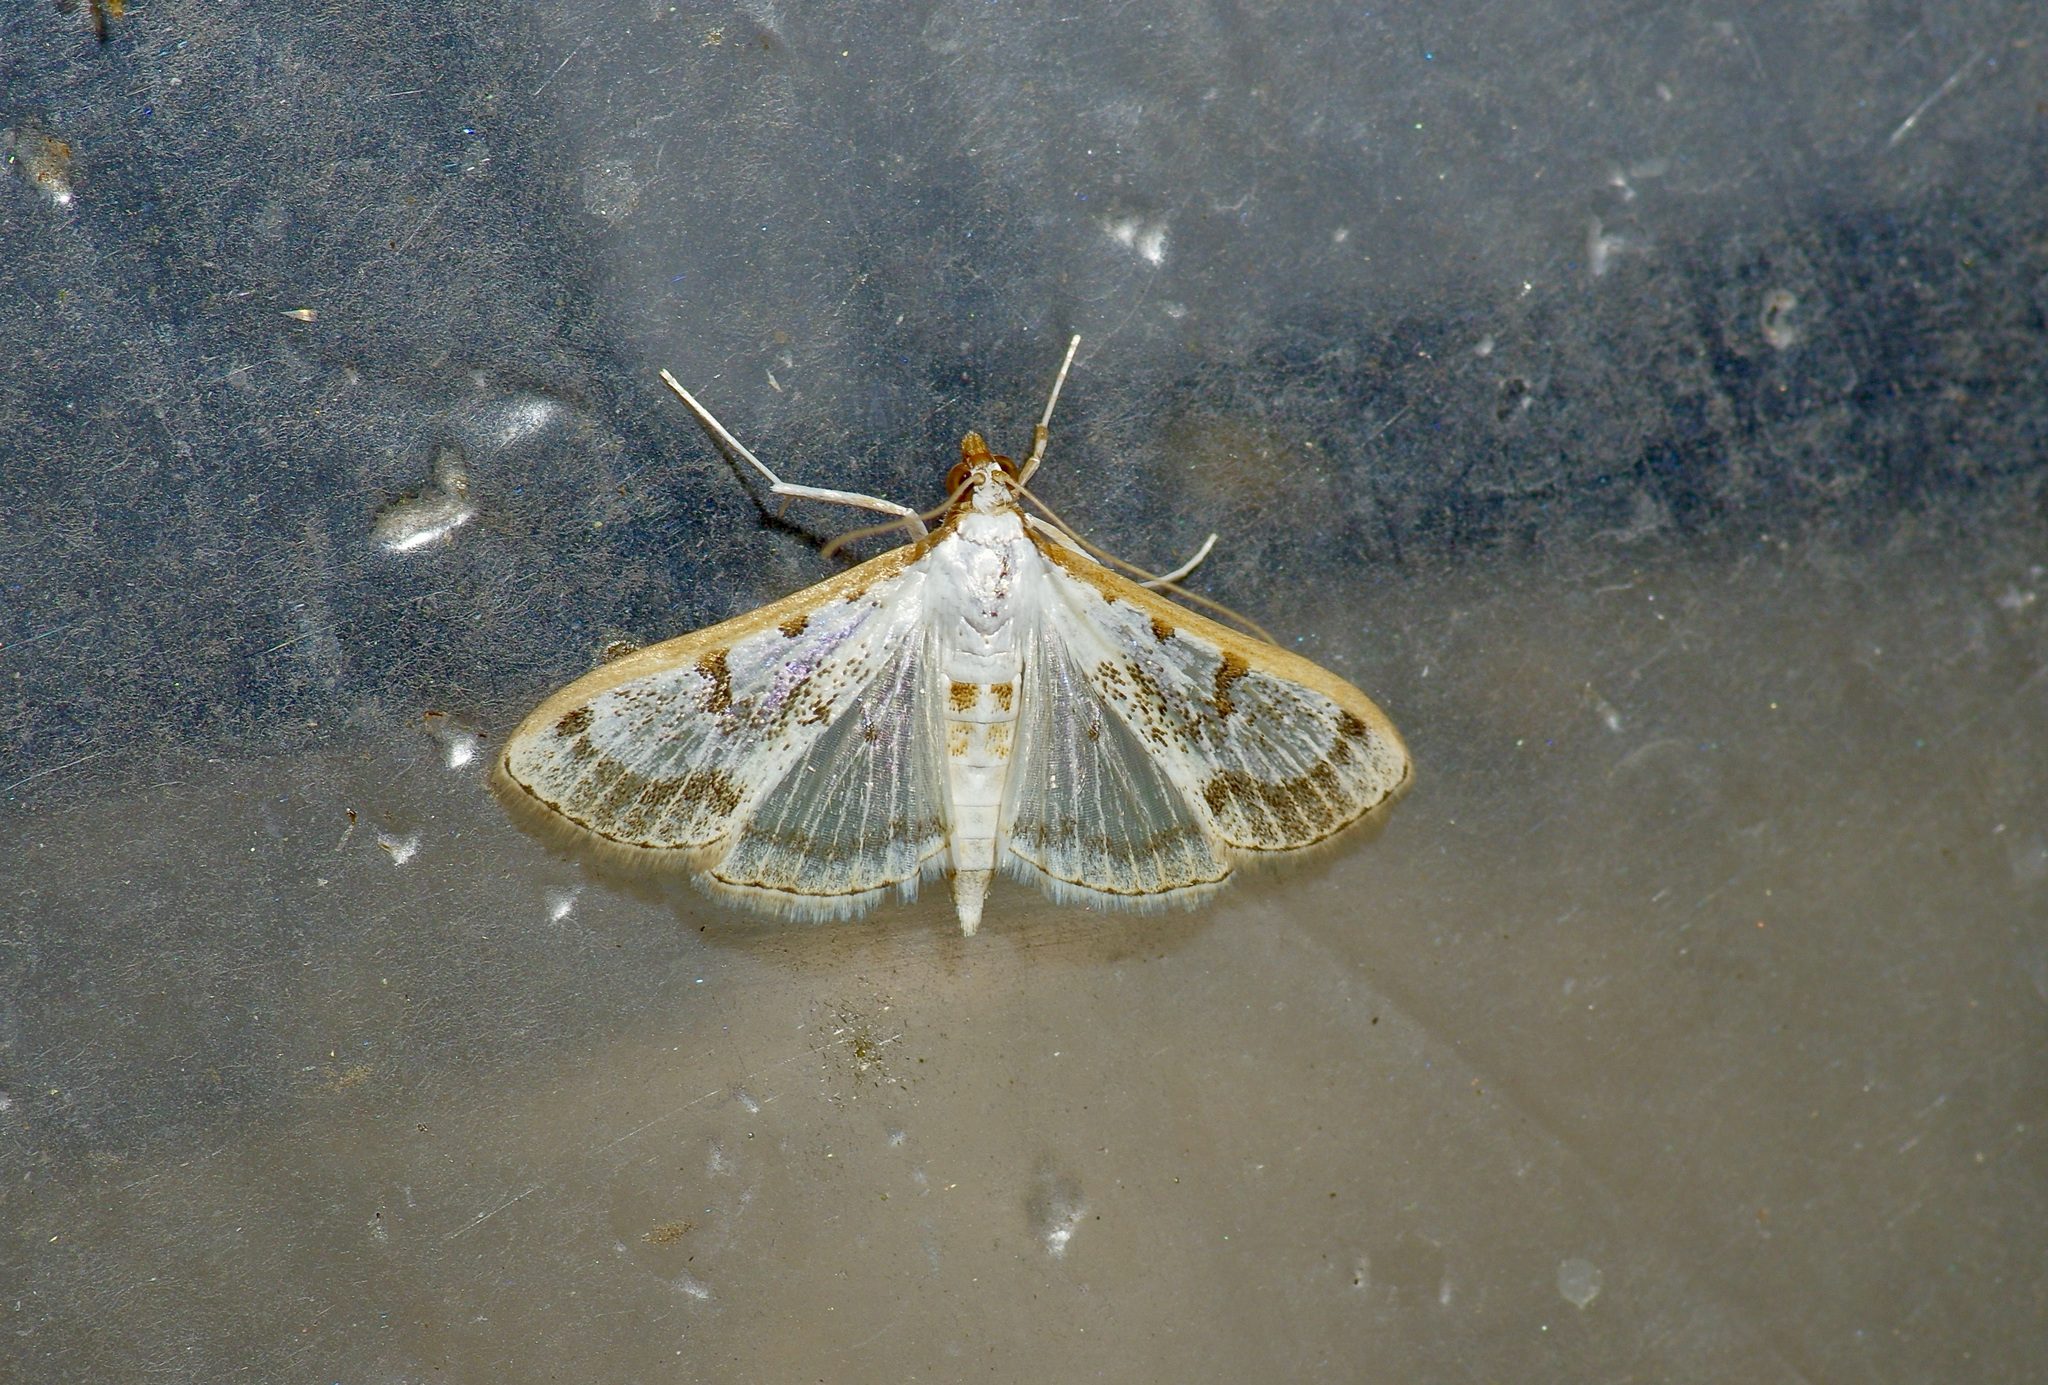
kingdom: Animalia
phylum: Arthropoda
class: Insecta
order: Lepidoptera
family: Crambidae
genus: Palpita
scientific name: Palpita gracilalis
